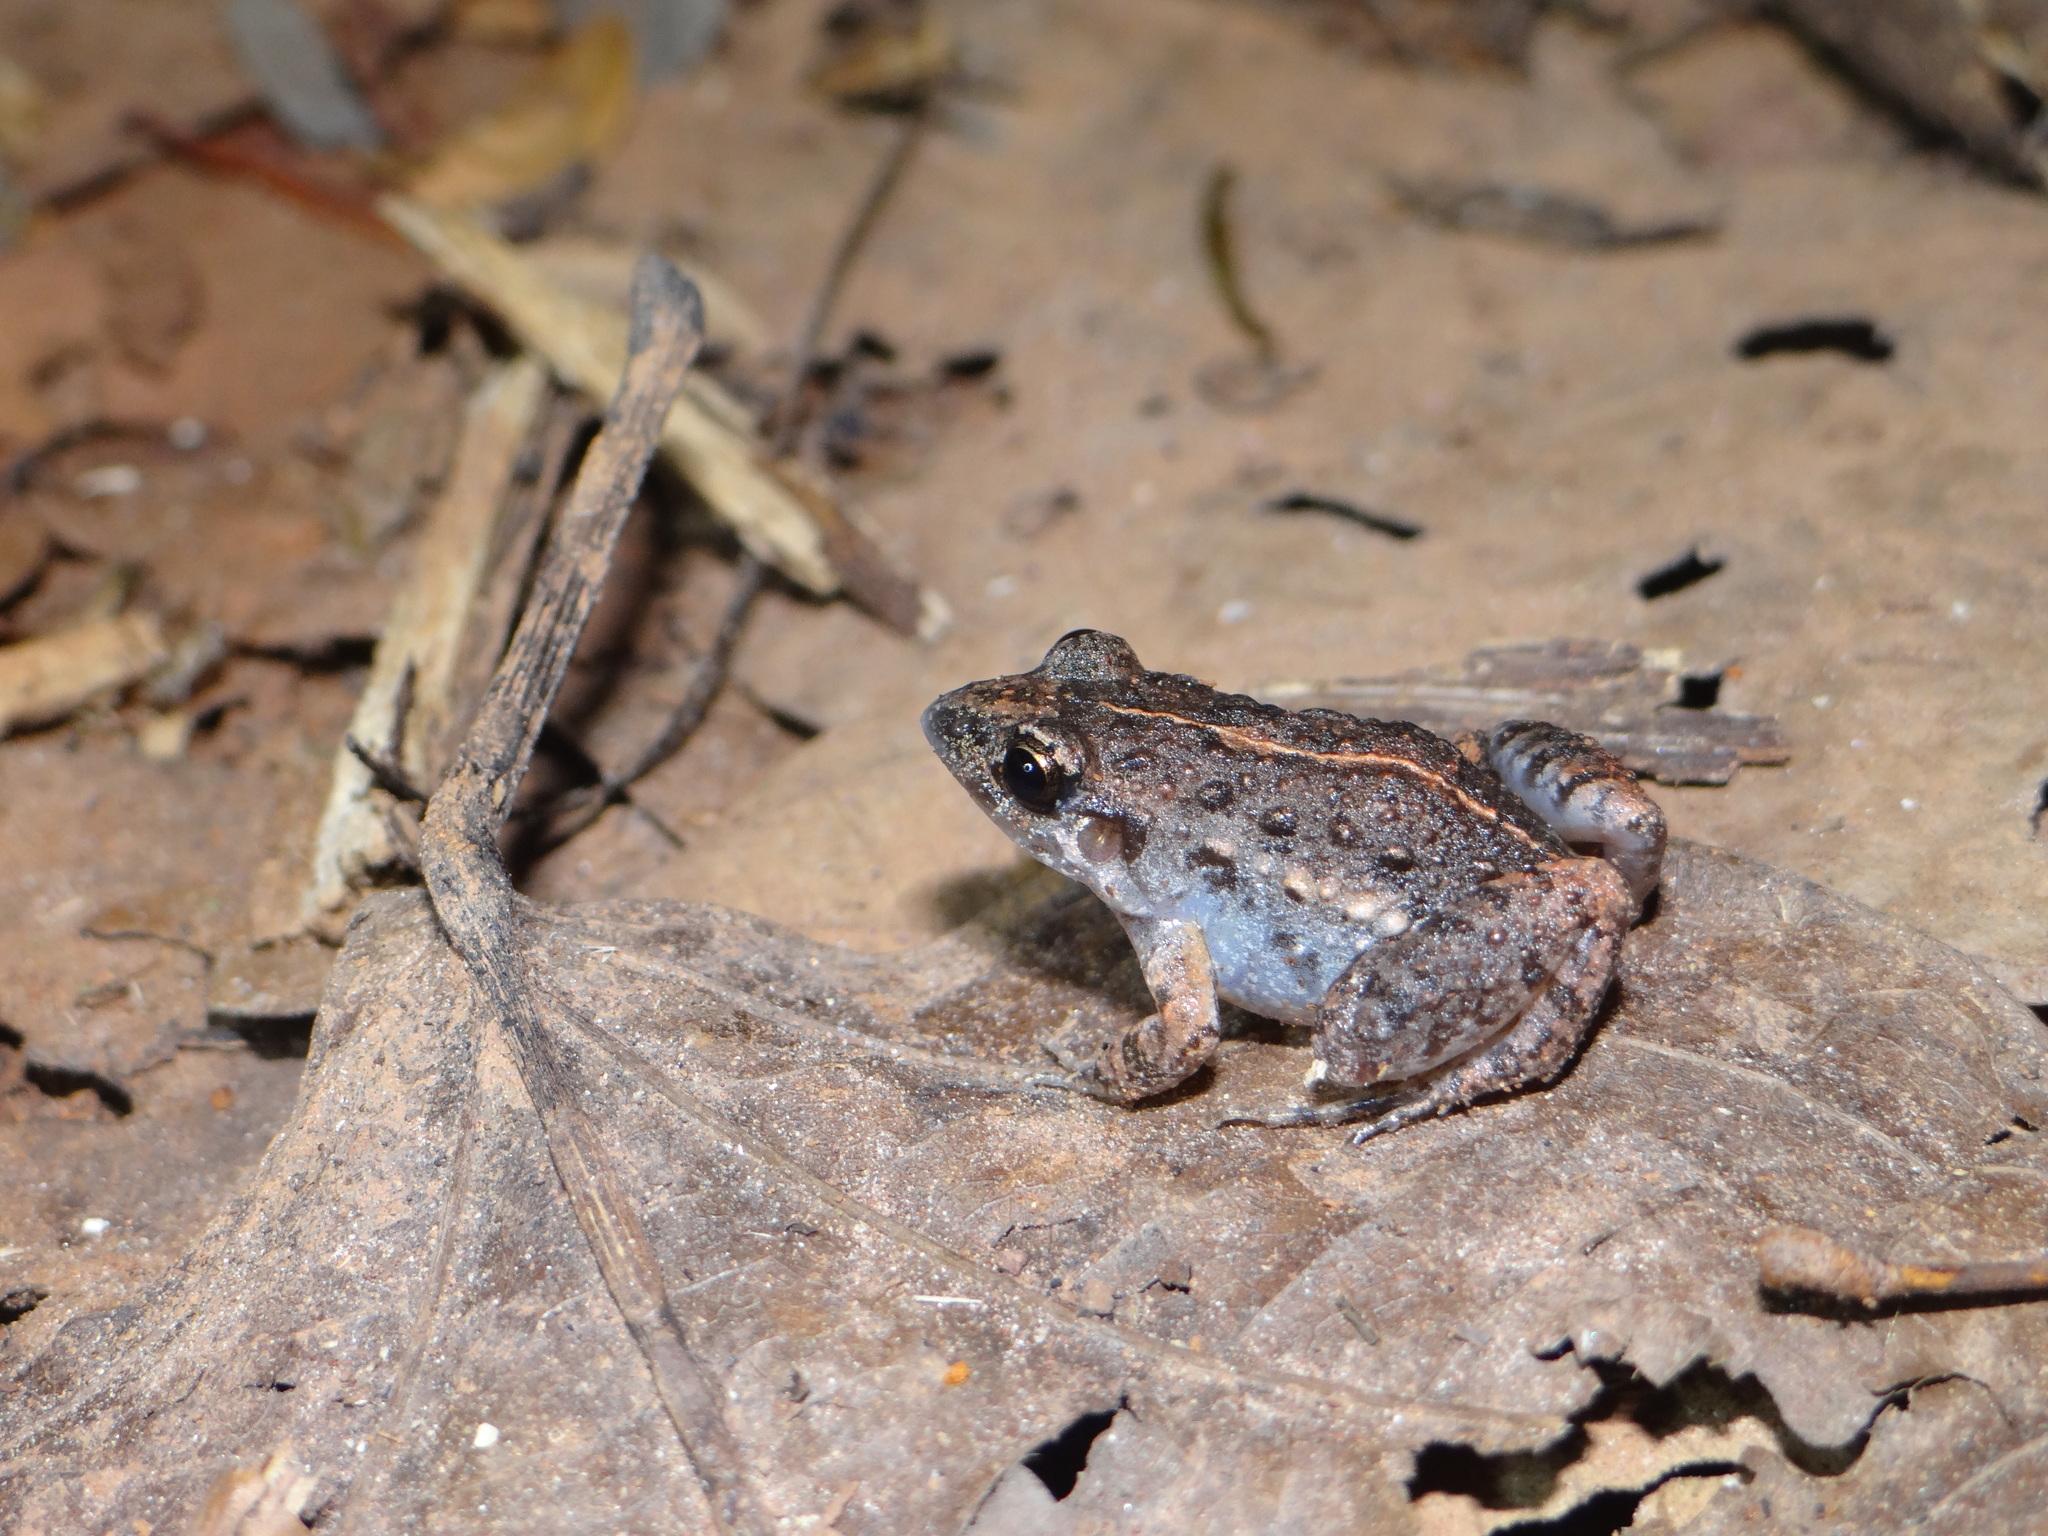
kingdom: Animalia
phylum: Chordata
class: Amphibia
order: Anura
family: Leptodactylidae
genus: Adenomera
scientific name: Adenomera hylaedactyla
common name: Napo tropical bullfrog
